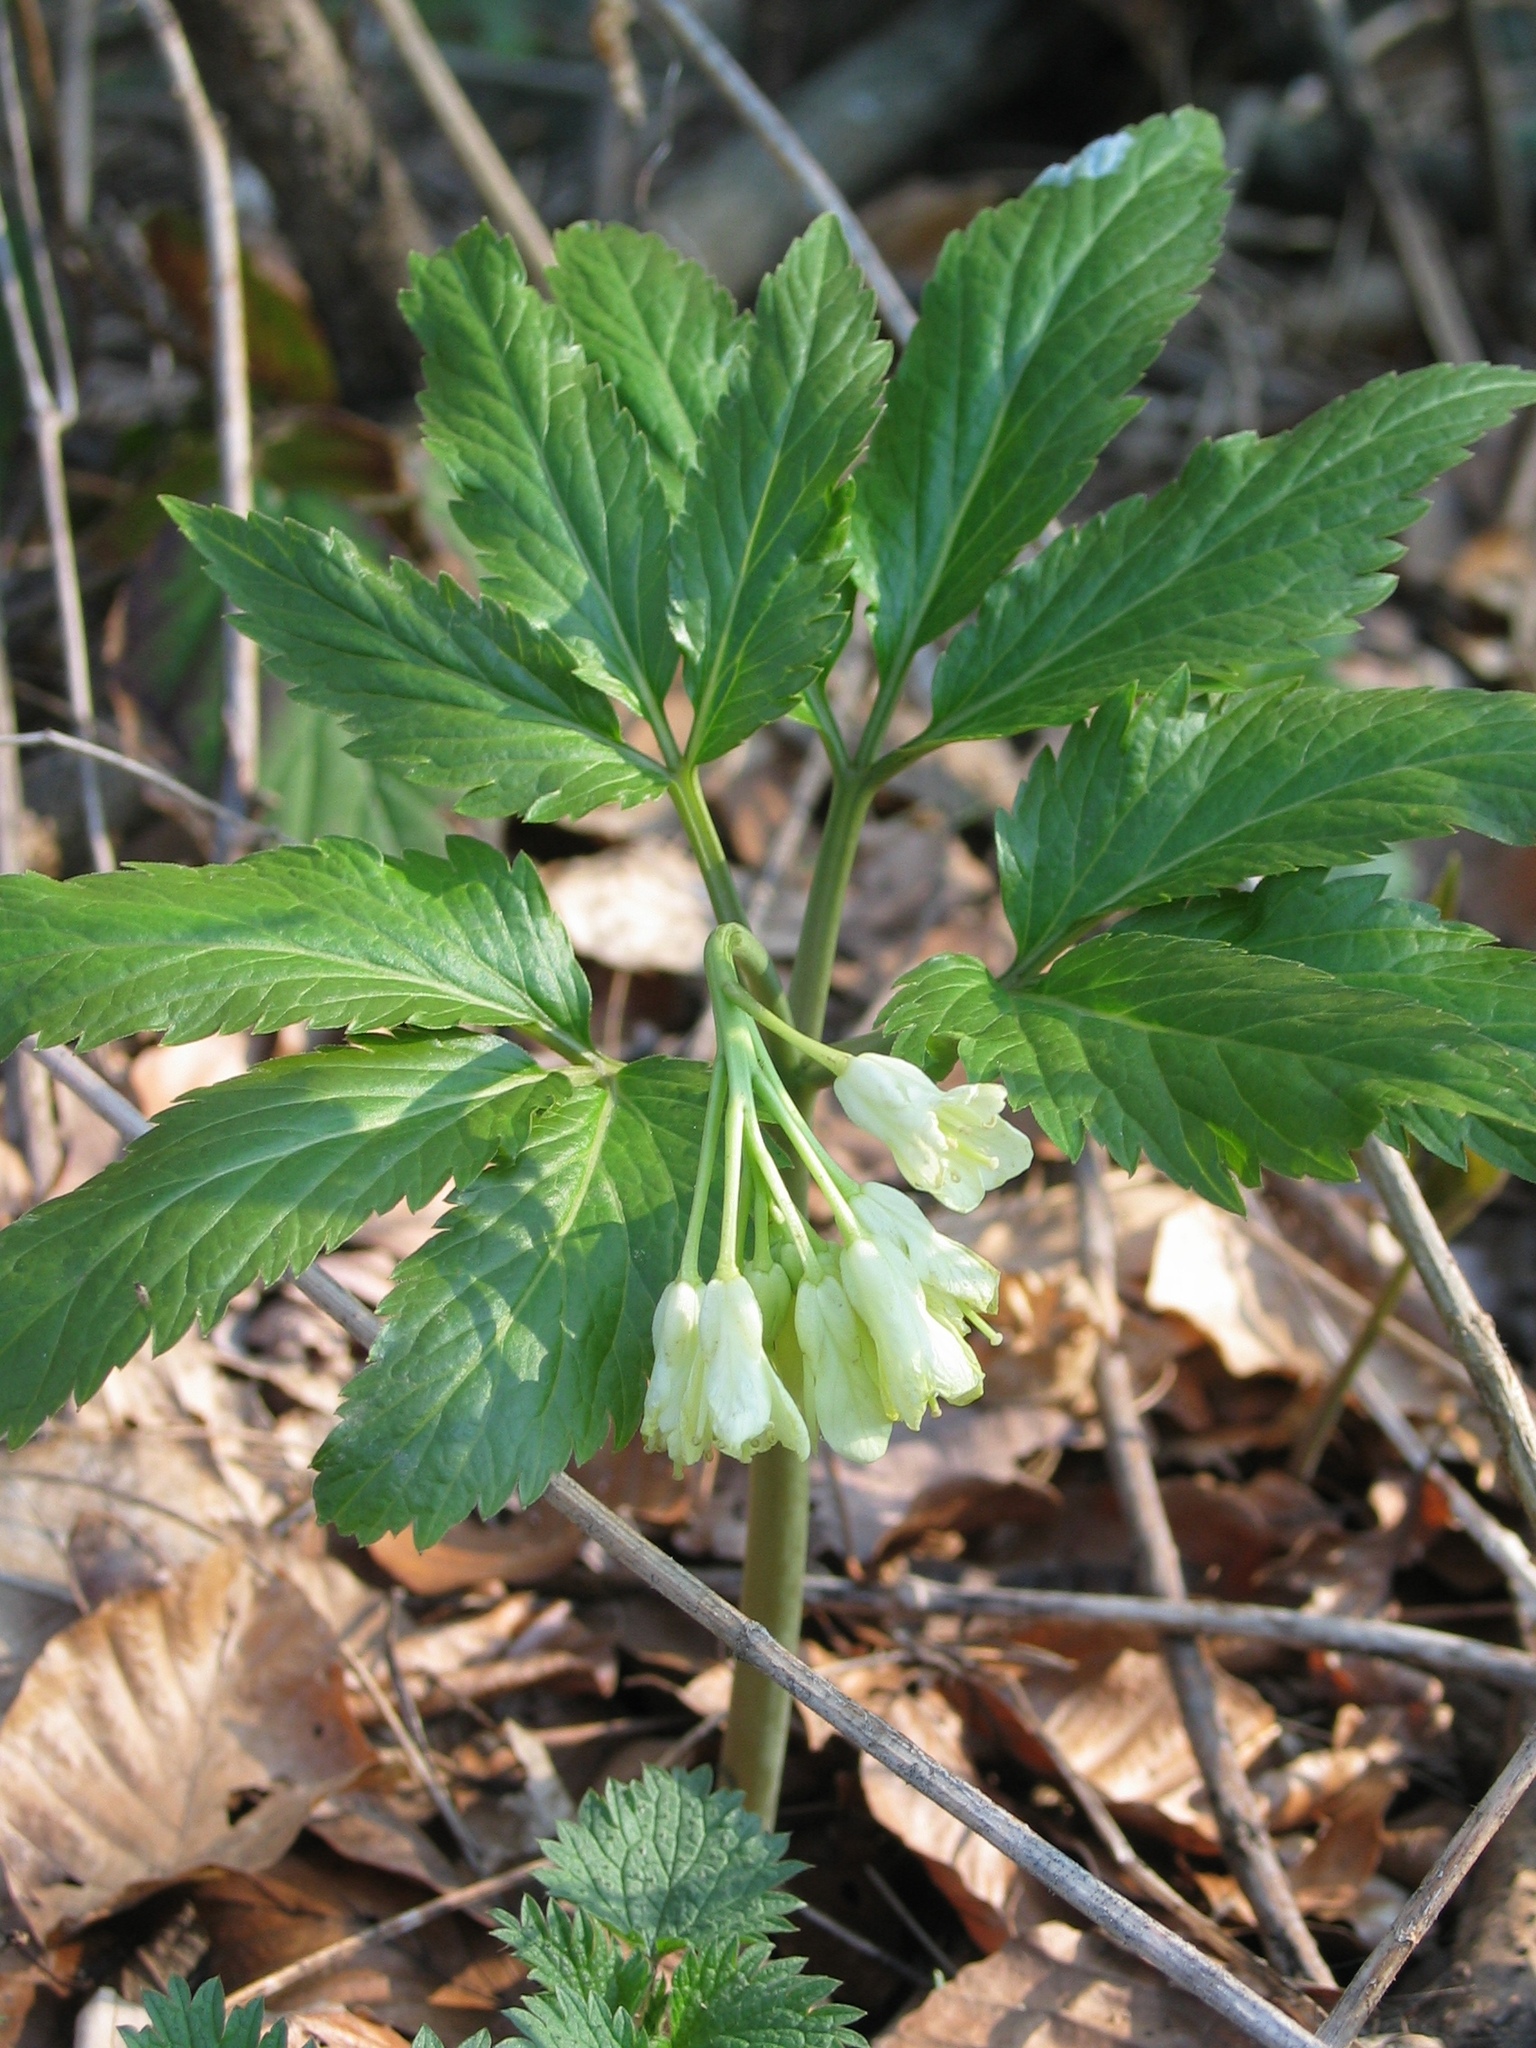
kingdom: Plantae
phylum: Tracheophyta
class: Magnoliopsida
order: Brassicales
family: Brassicaceae
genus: Cardamine
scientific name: Cardamine enneaphyllos
